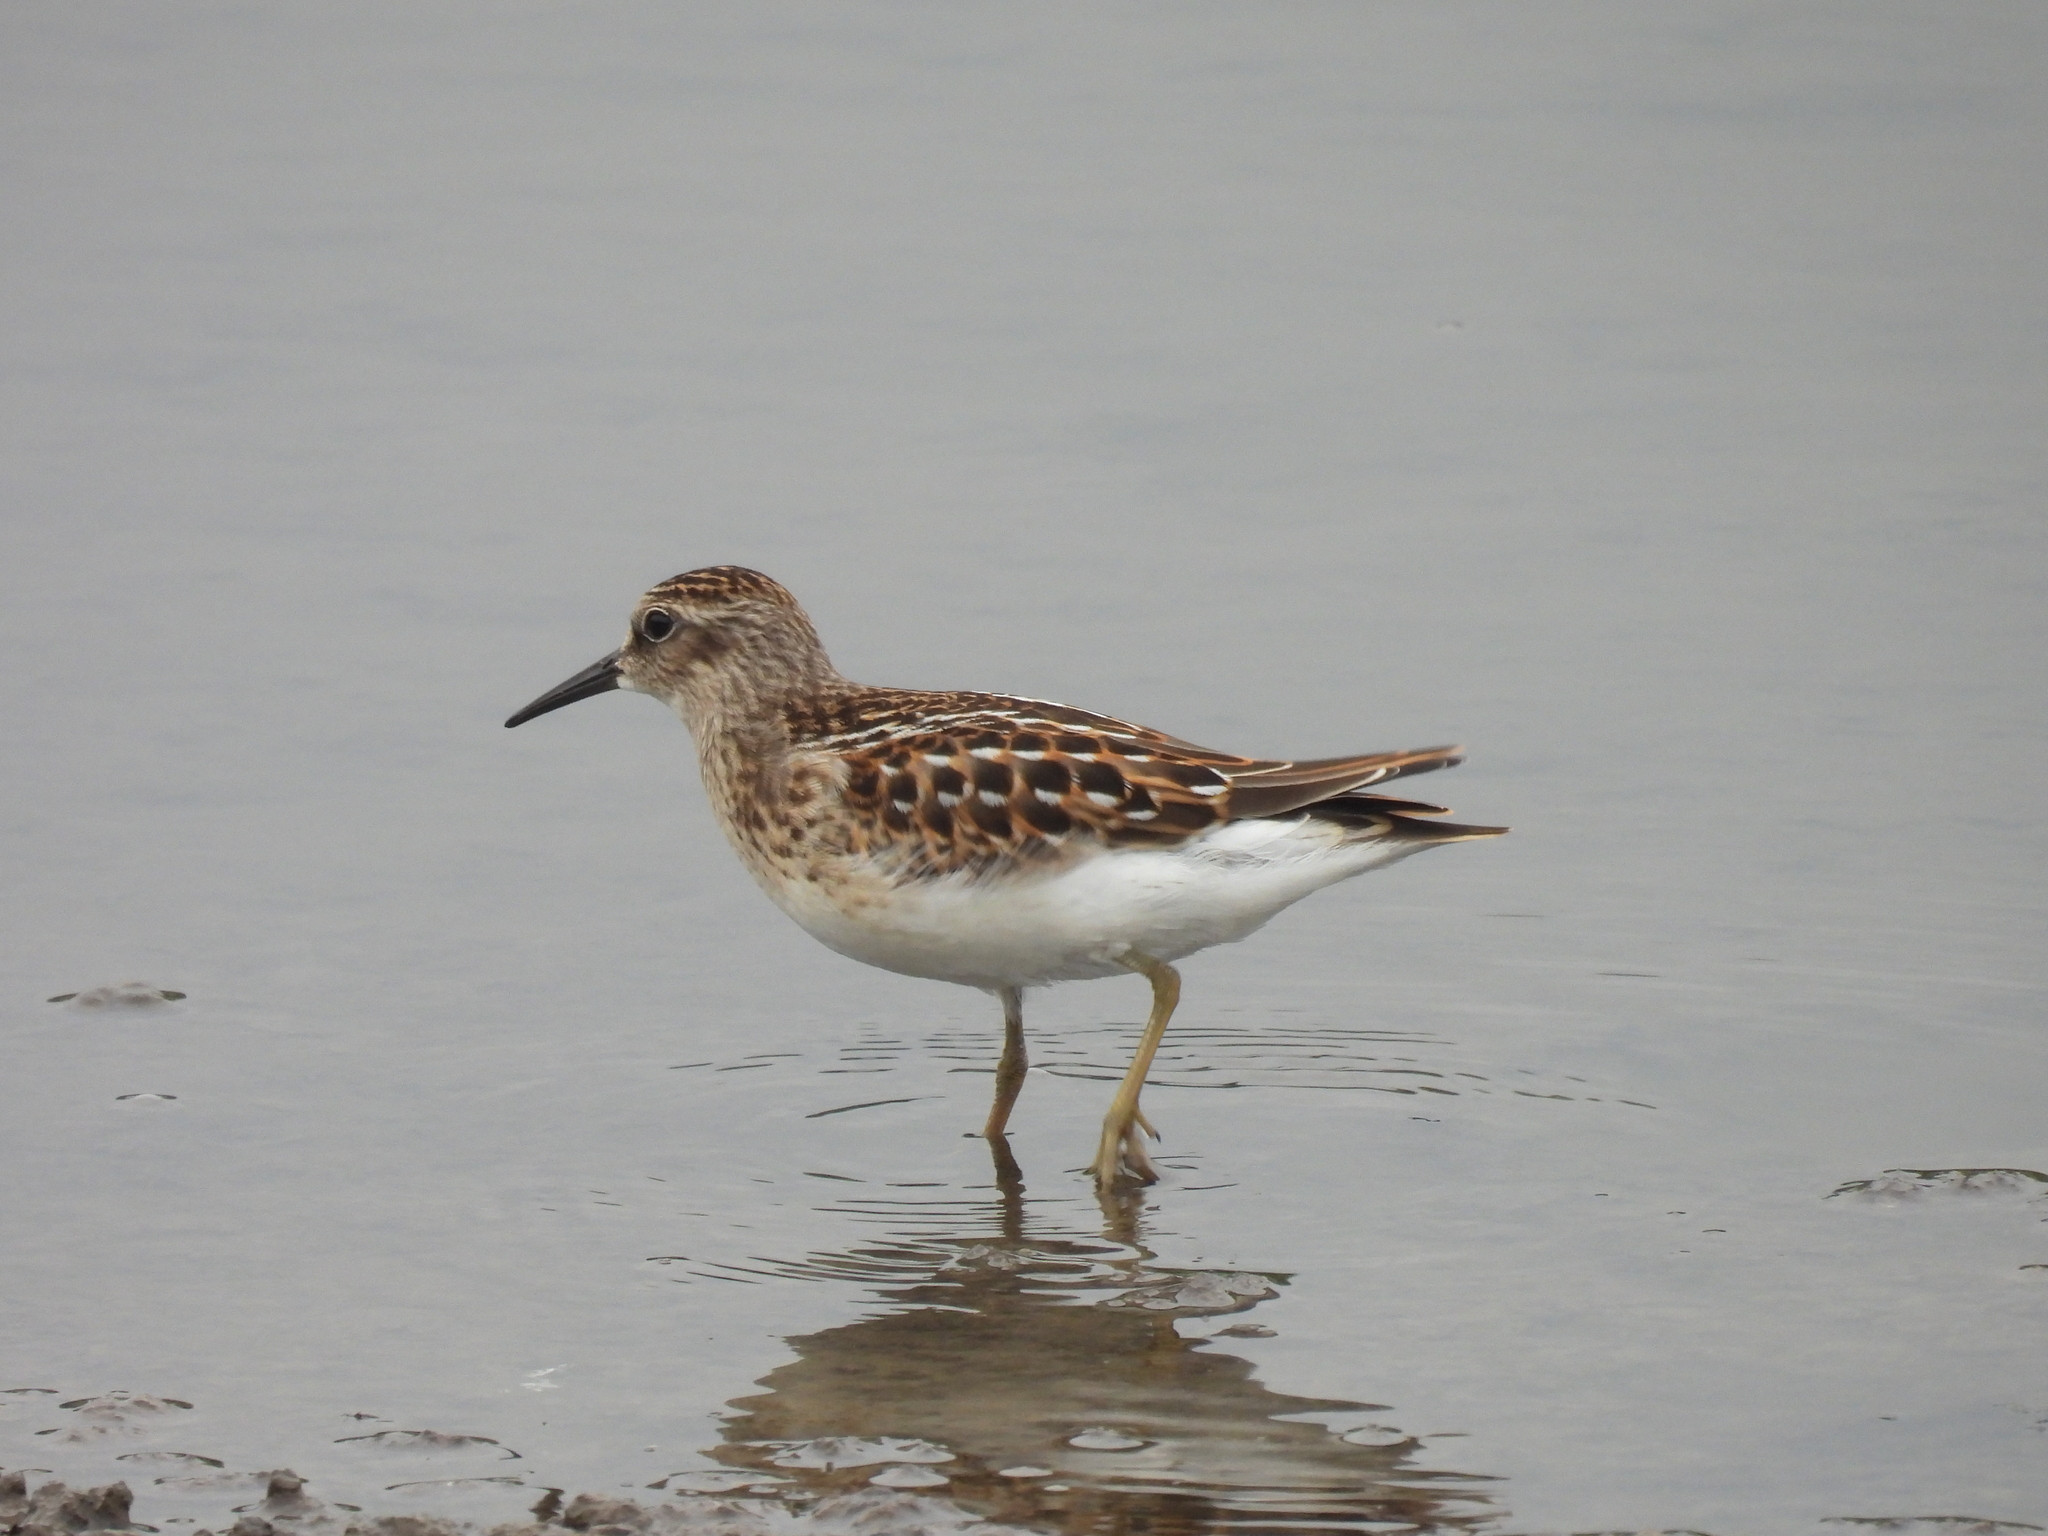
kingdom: Animalia
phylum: Chordata
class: Aves
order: Charadriiformes
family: Scolopacidae
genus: Calidris
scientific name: Calidris minutilla
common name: Least sandpiper
